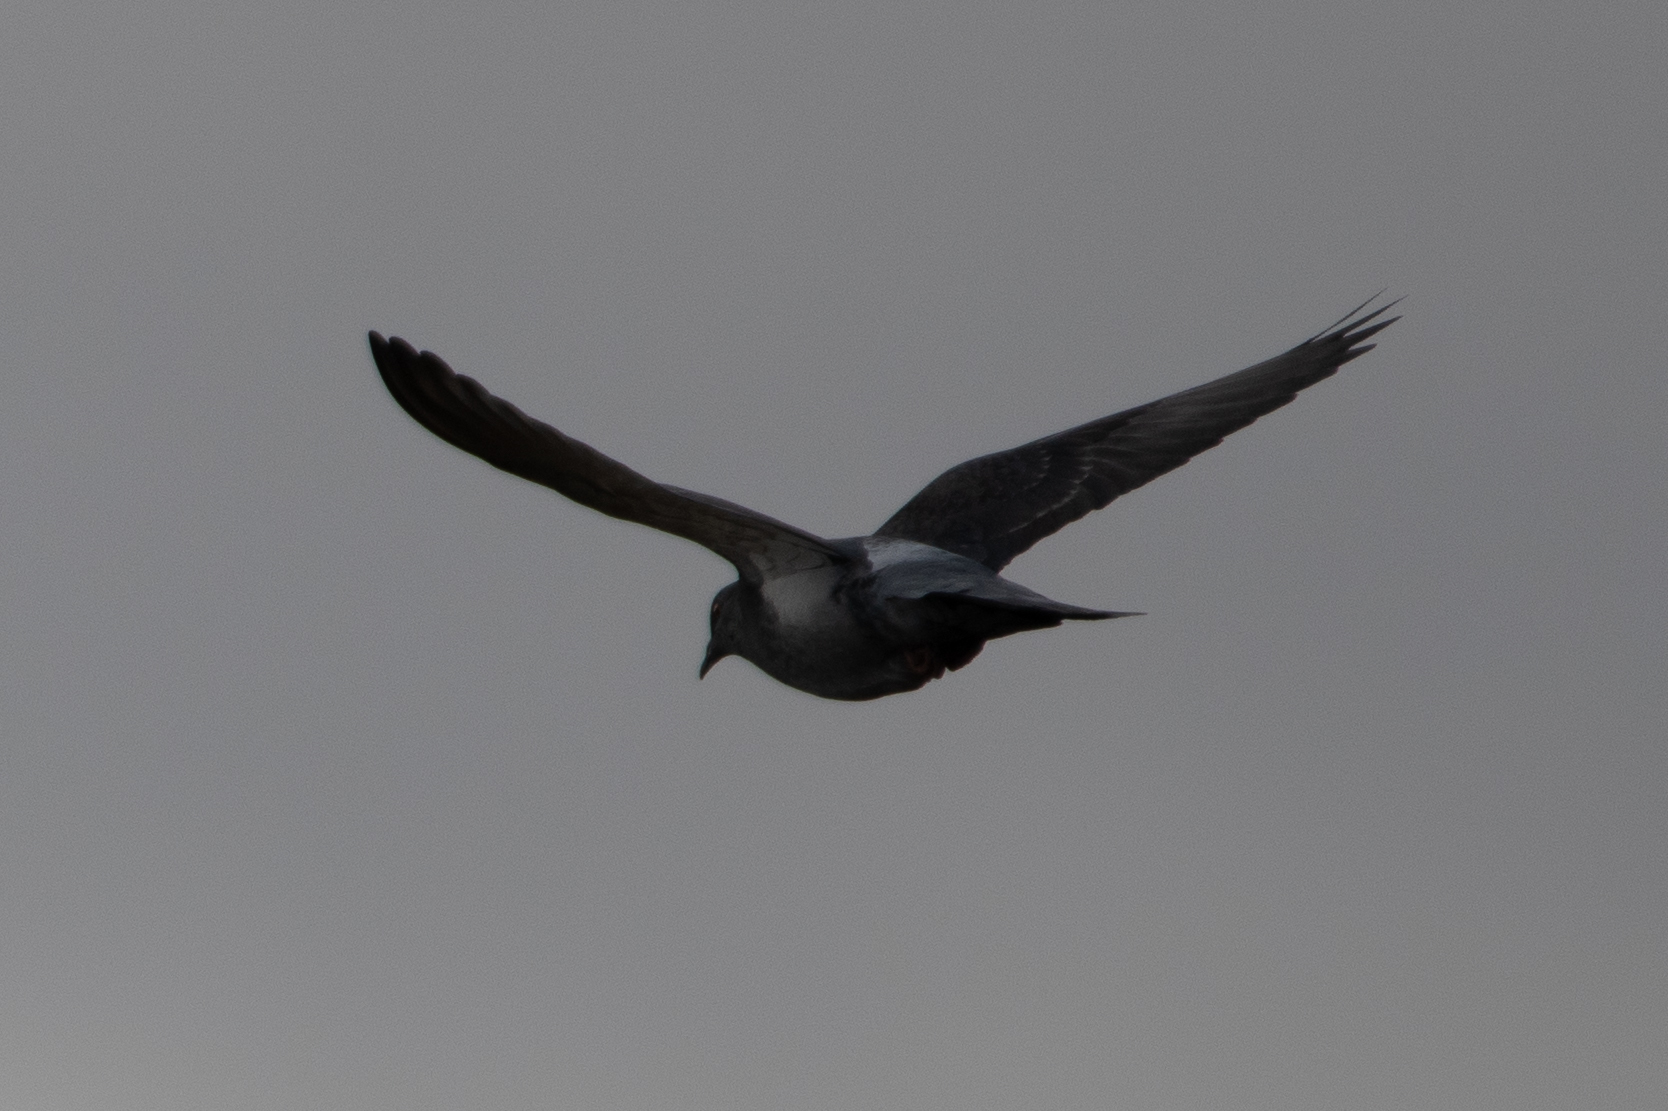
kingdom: Animalia
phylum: Chordata
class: Aves
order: Columbiformes
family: Columbidae
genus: Columba
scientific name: Columba livia
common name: Rock pigeon
